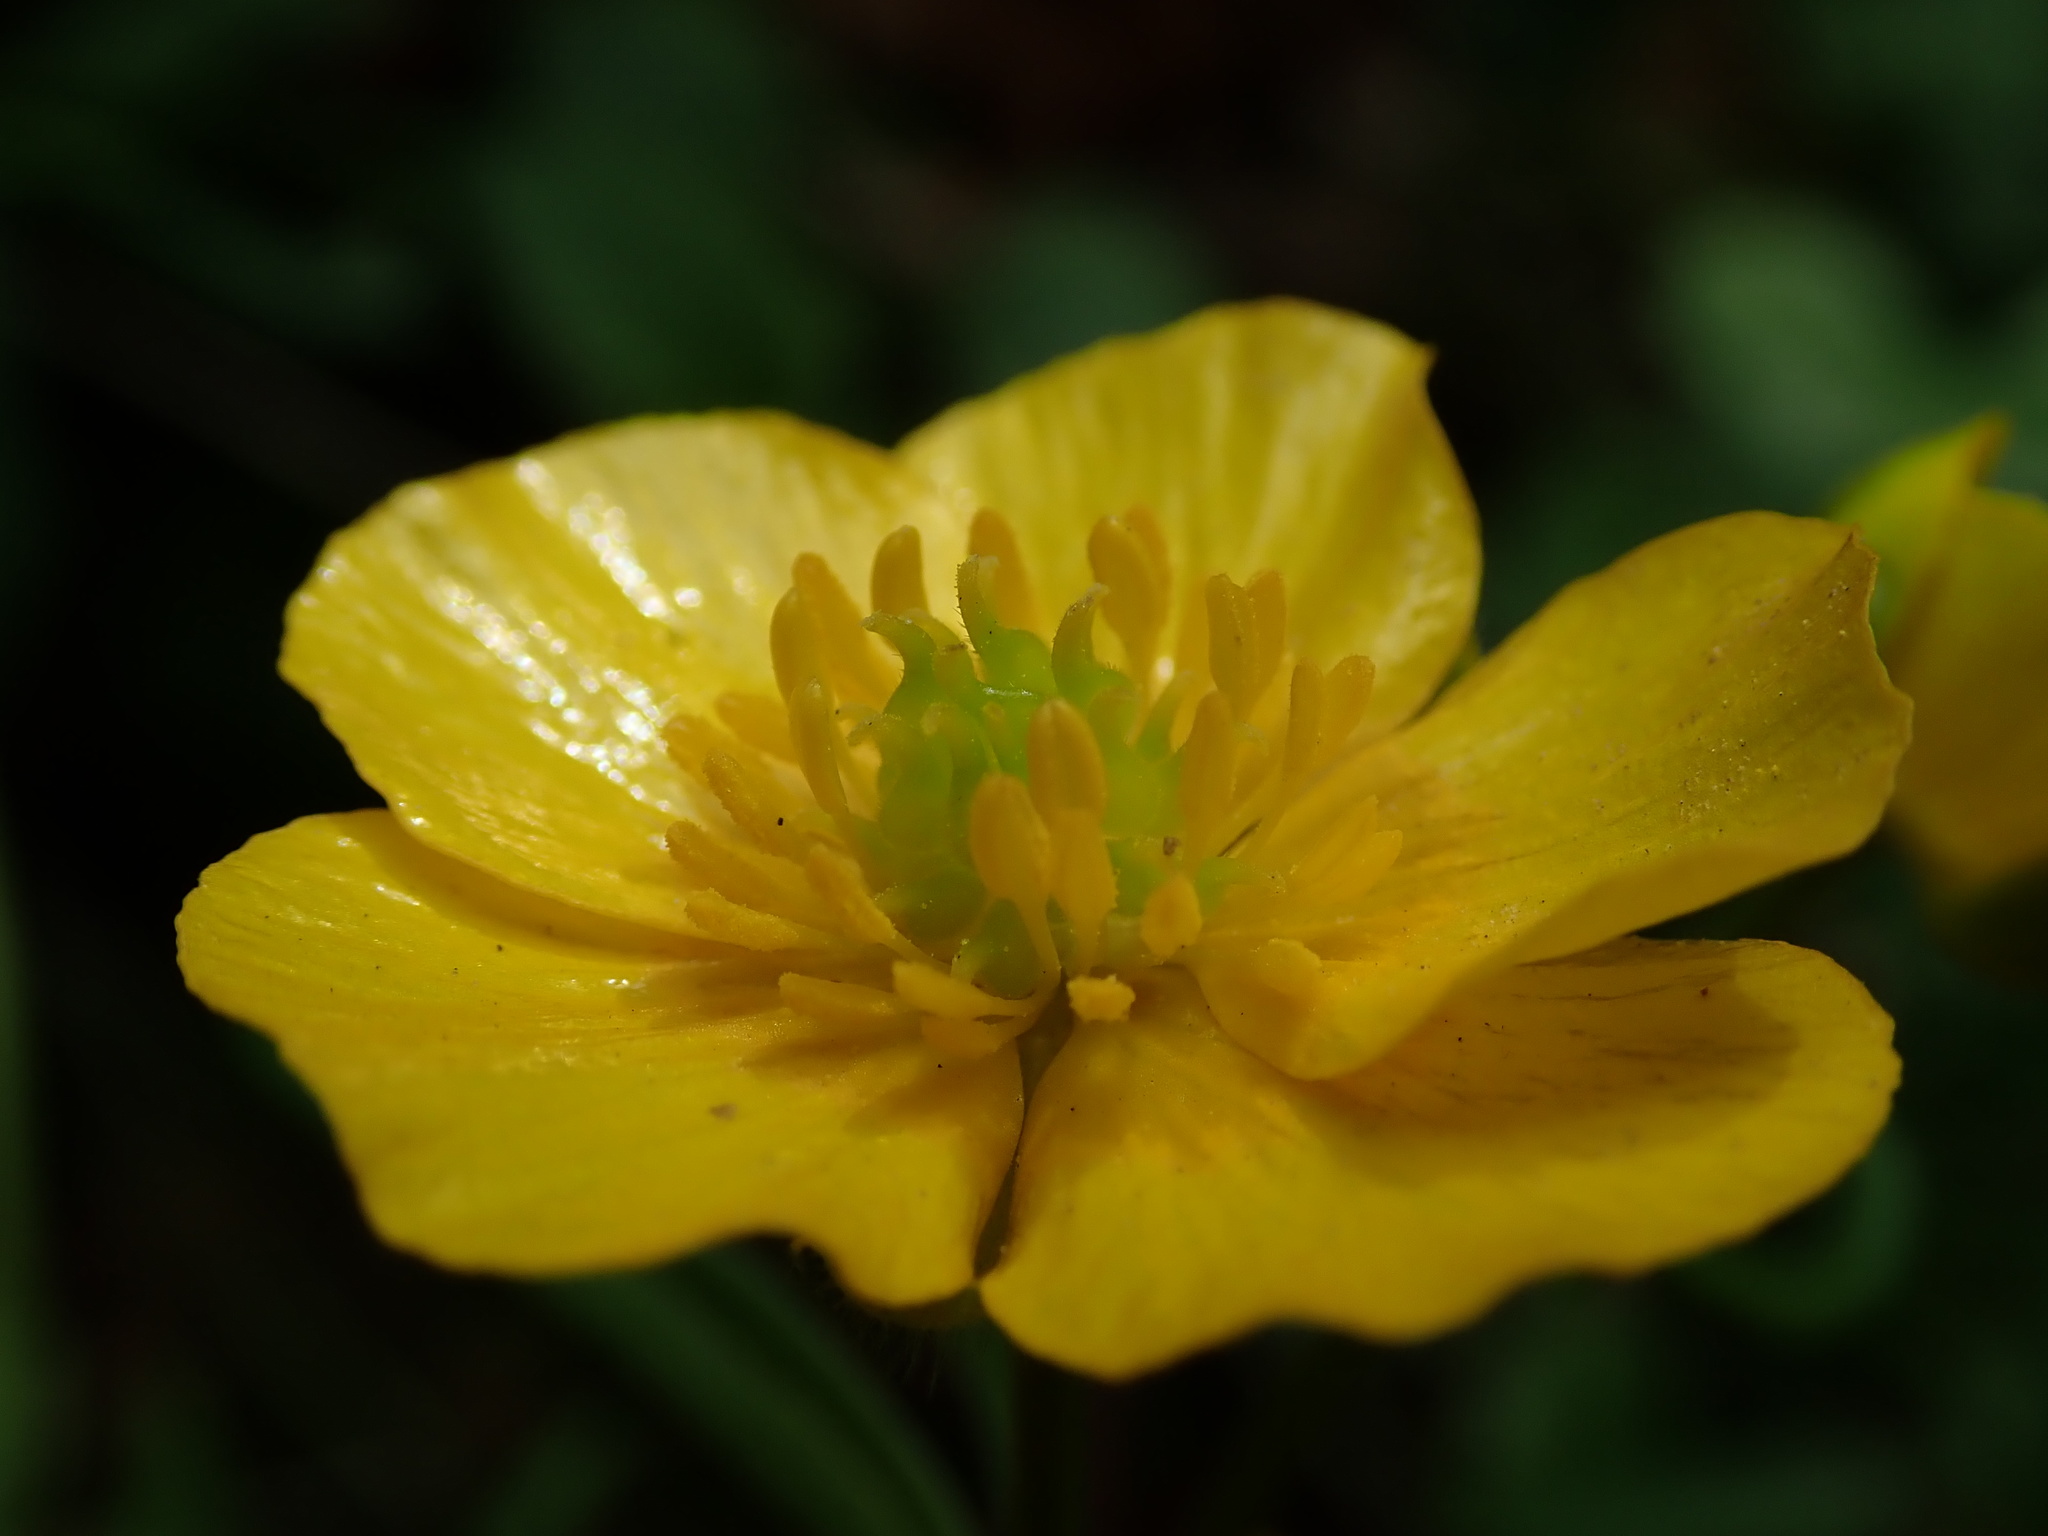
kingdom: Plantae
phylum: Tracheophyta
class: Magnoliopsida
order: Ranunculales
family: Ranunculaceae
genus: Ranunculus
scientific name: Ranunculus auricomus
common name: Goldilocks buttercup
